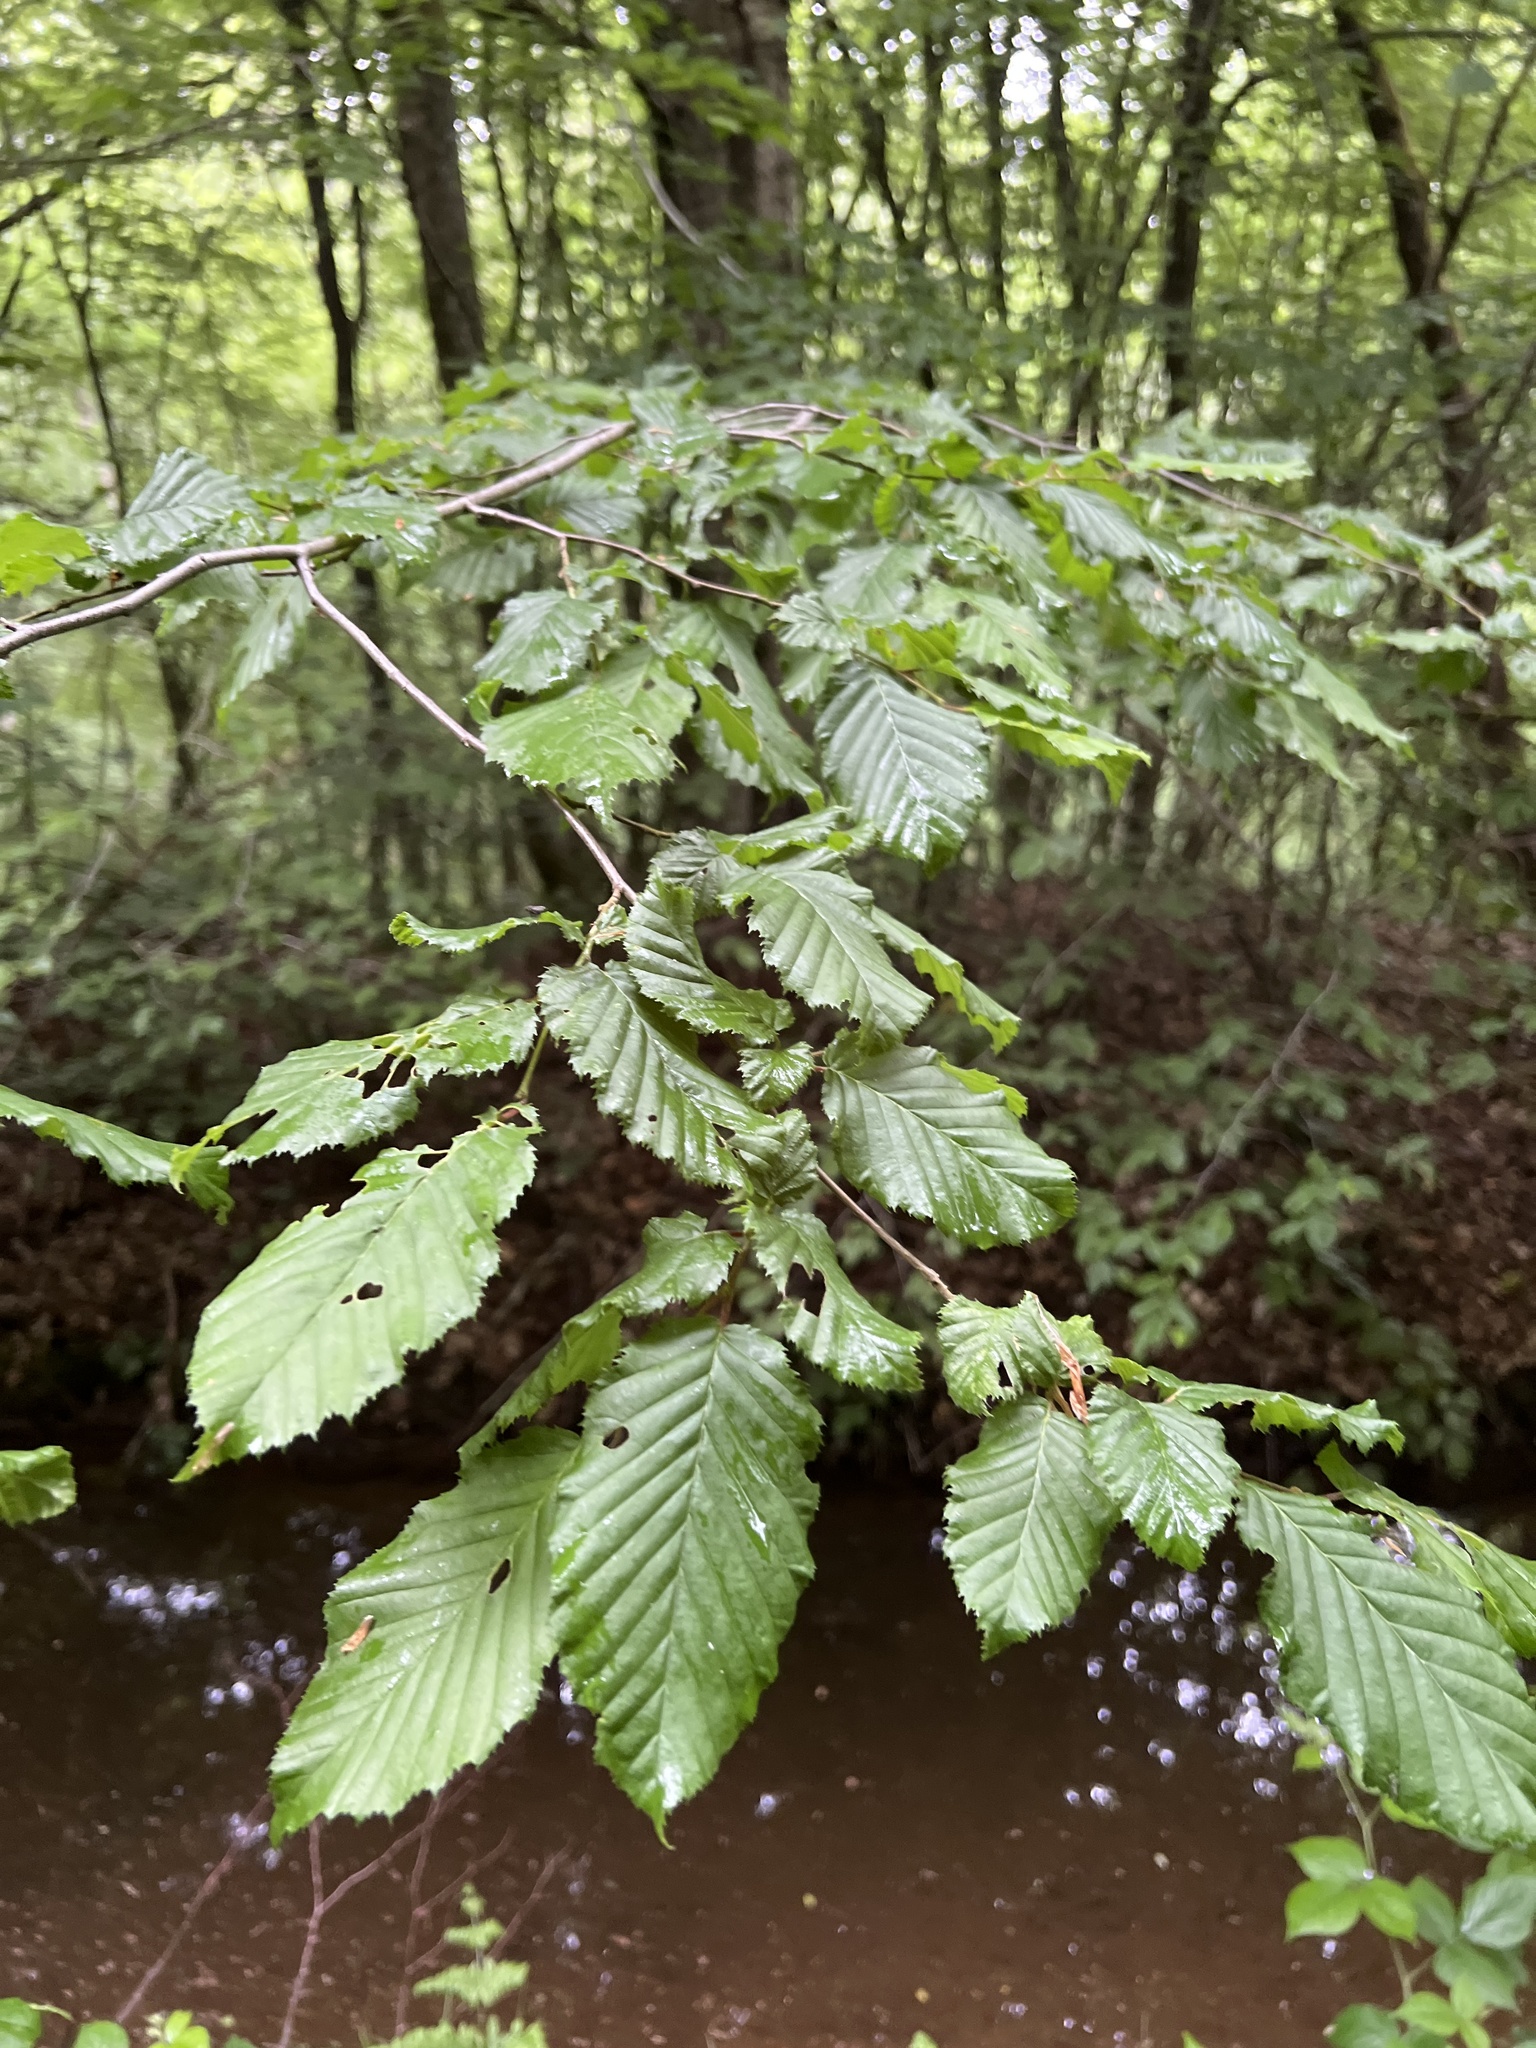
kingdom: Plantae
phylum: Tracheophyta
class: Magnoliopsida
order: Fagales
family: Betulaceae
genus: Carpinus
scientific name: Carpinus betulus
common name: Hornbeam
